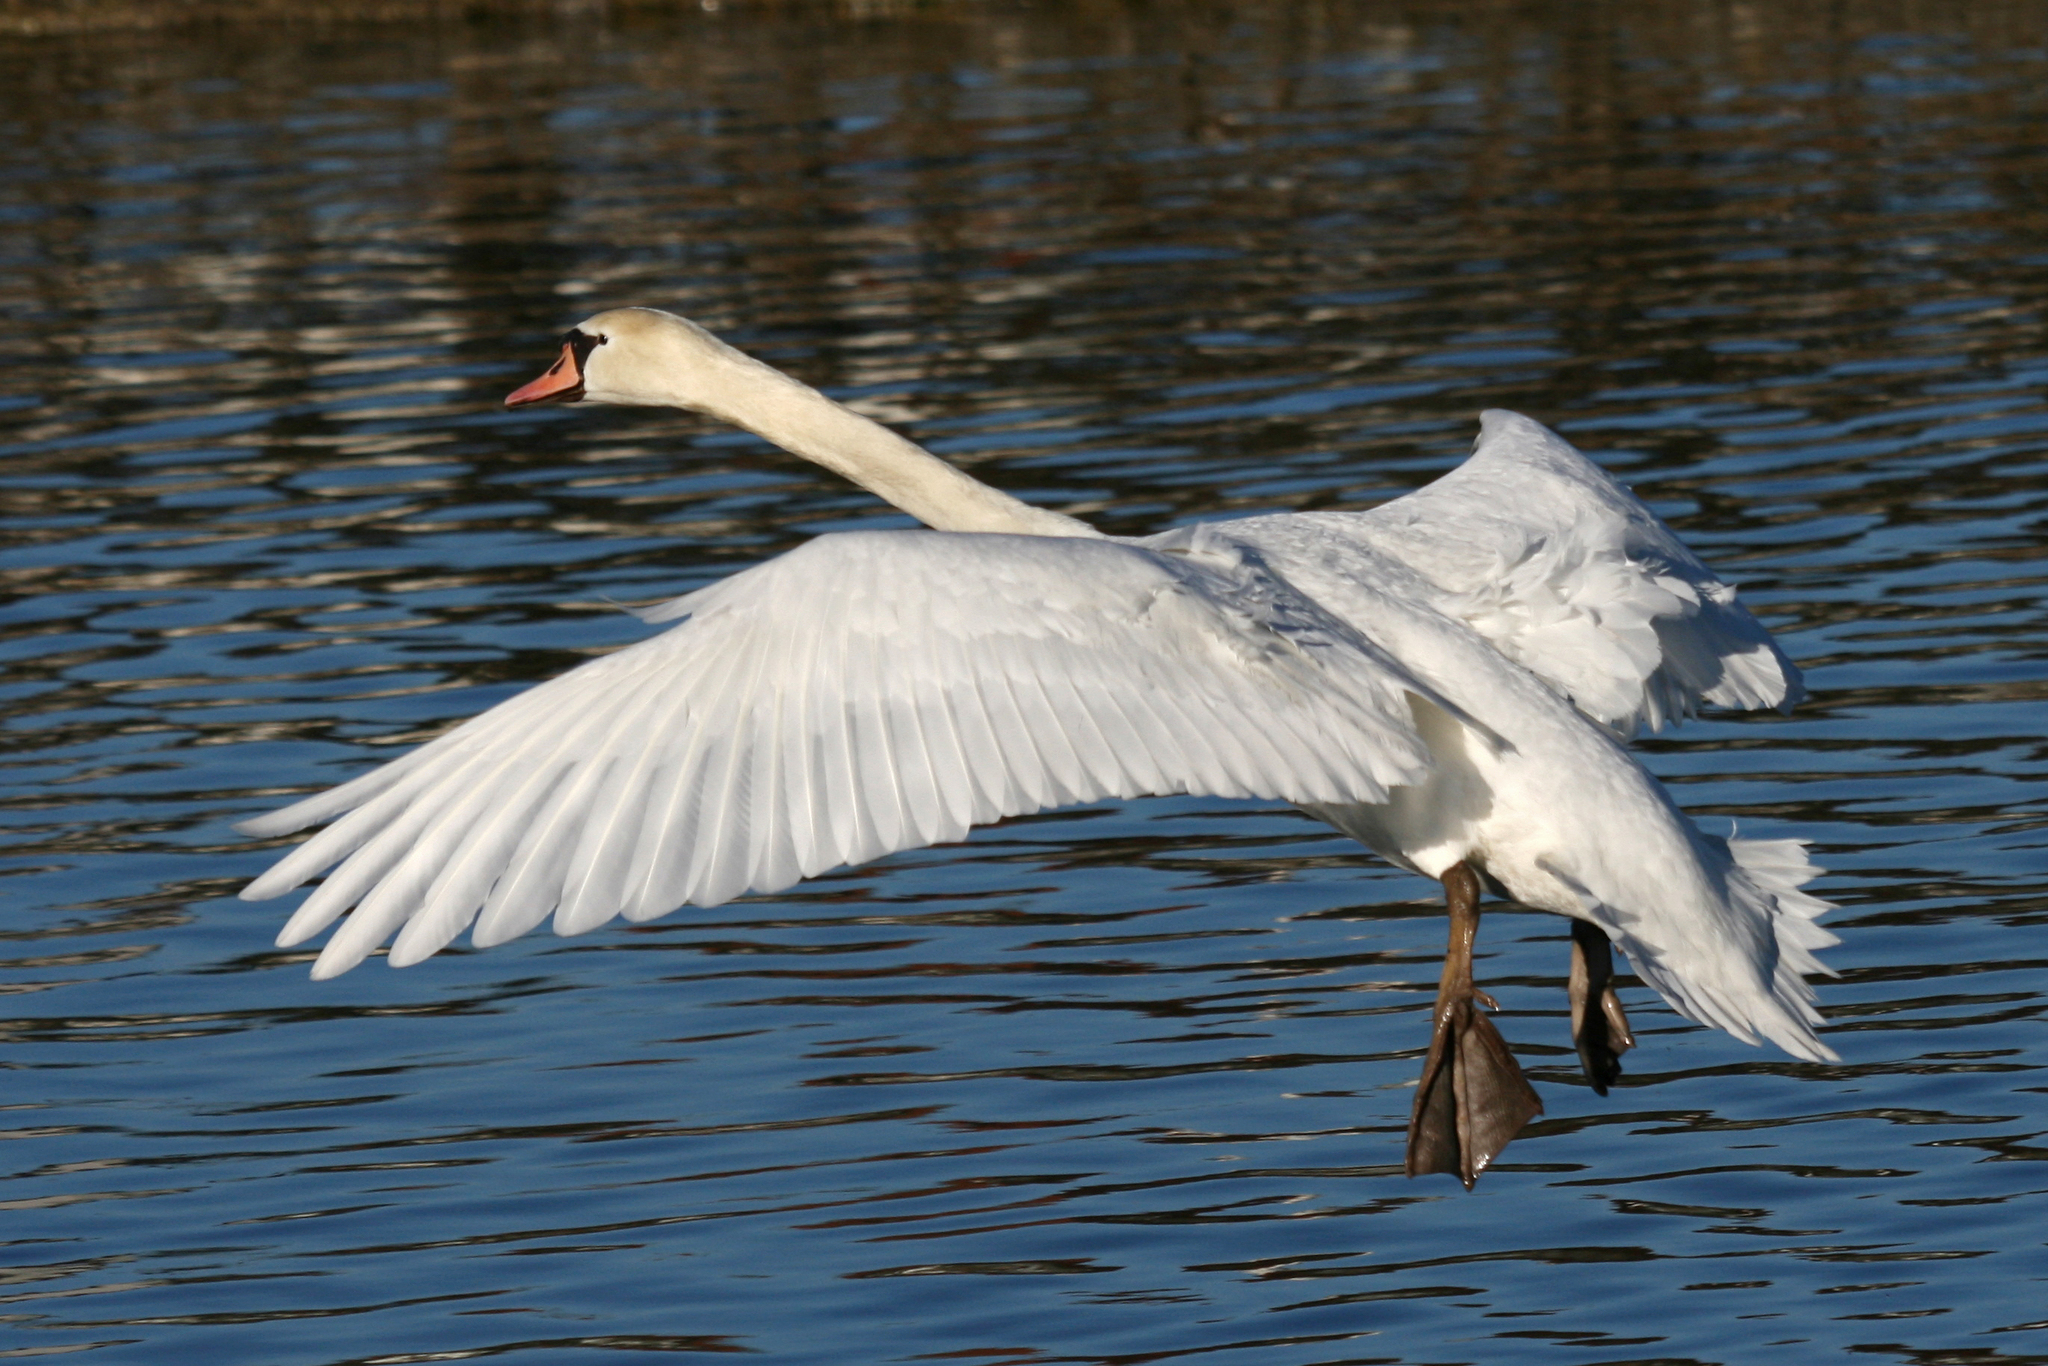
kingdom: Animalia
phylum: Chordata
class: Aves
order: Anseriformes
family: Anatidae
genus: Cygnus
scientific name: Cygnus olor
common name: Mute swan
